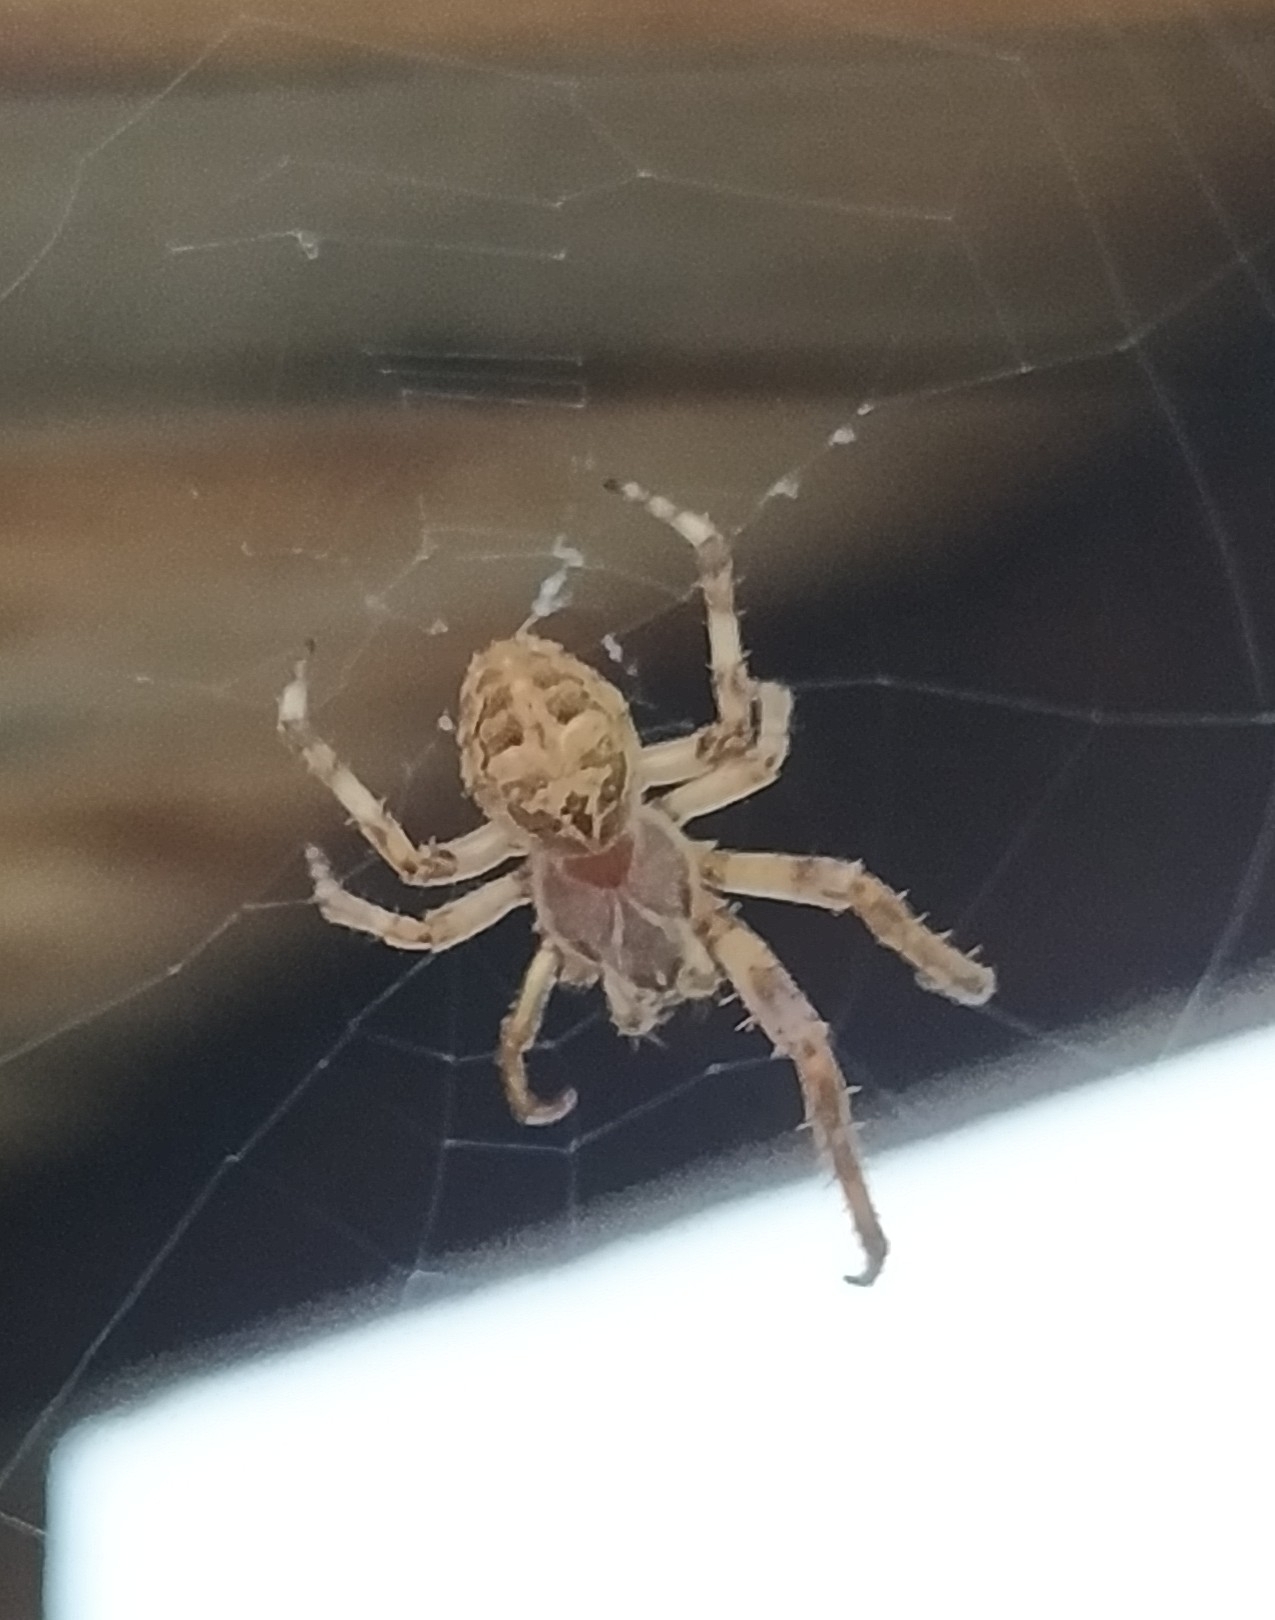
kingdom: Animalia
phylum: Arthropoda
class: Arachnida
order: Araneae
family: Araneidae
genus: Larinioides
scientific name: Larinioides sclopetarius
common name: Bridge orbweaver
